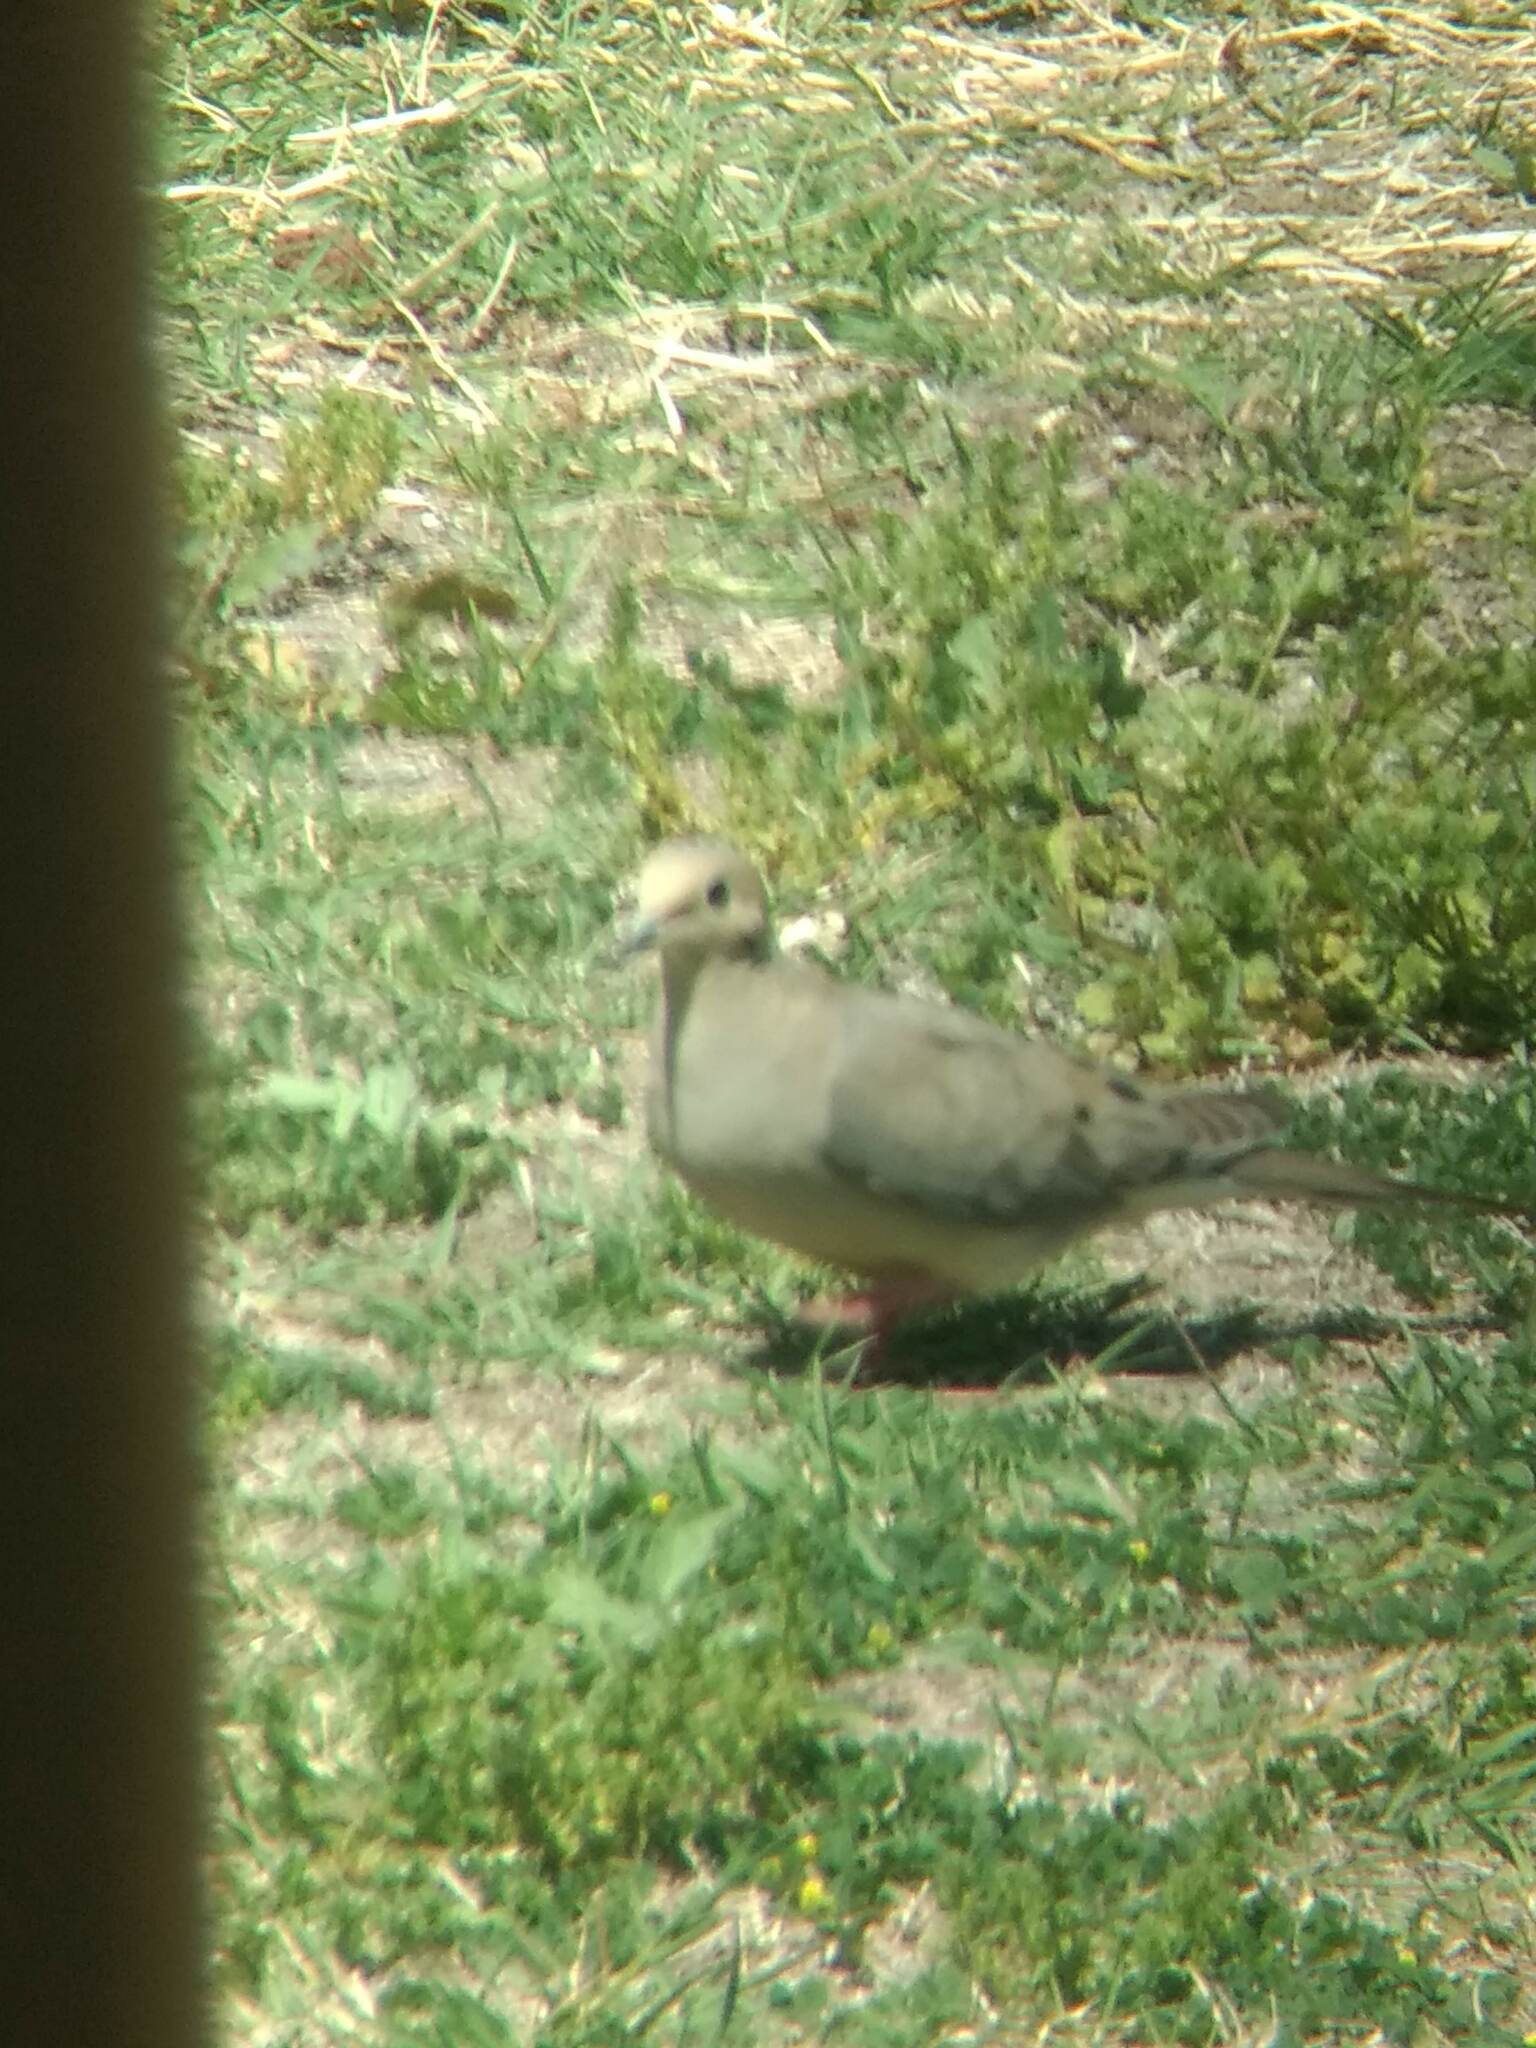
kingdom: Animalia
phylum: Chordata
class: Aves
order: Columbiformes
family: Columbidae
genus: Zenaida
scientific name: Zenaida macroura
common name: Mourning dove
